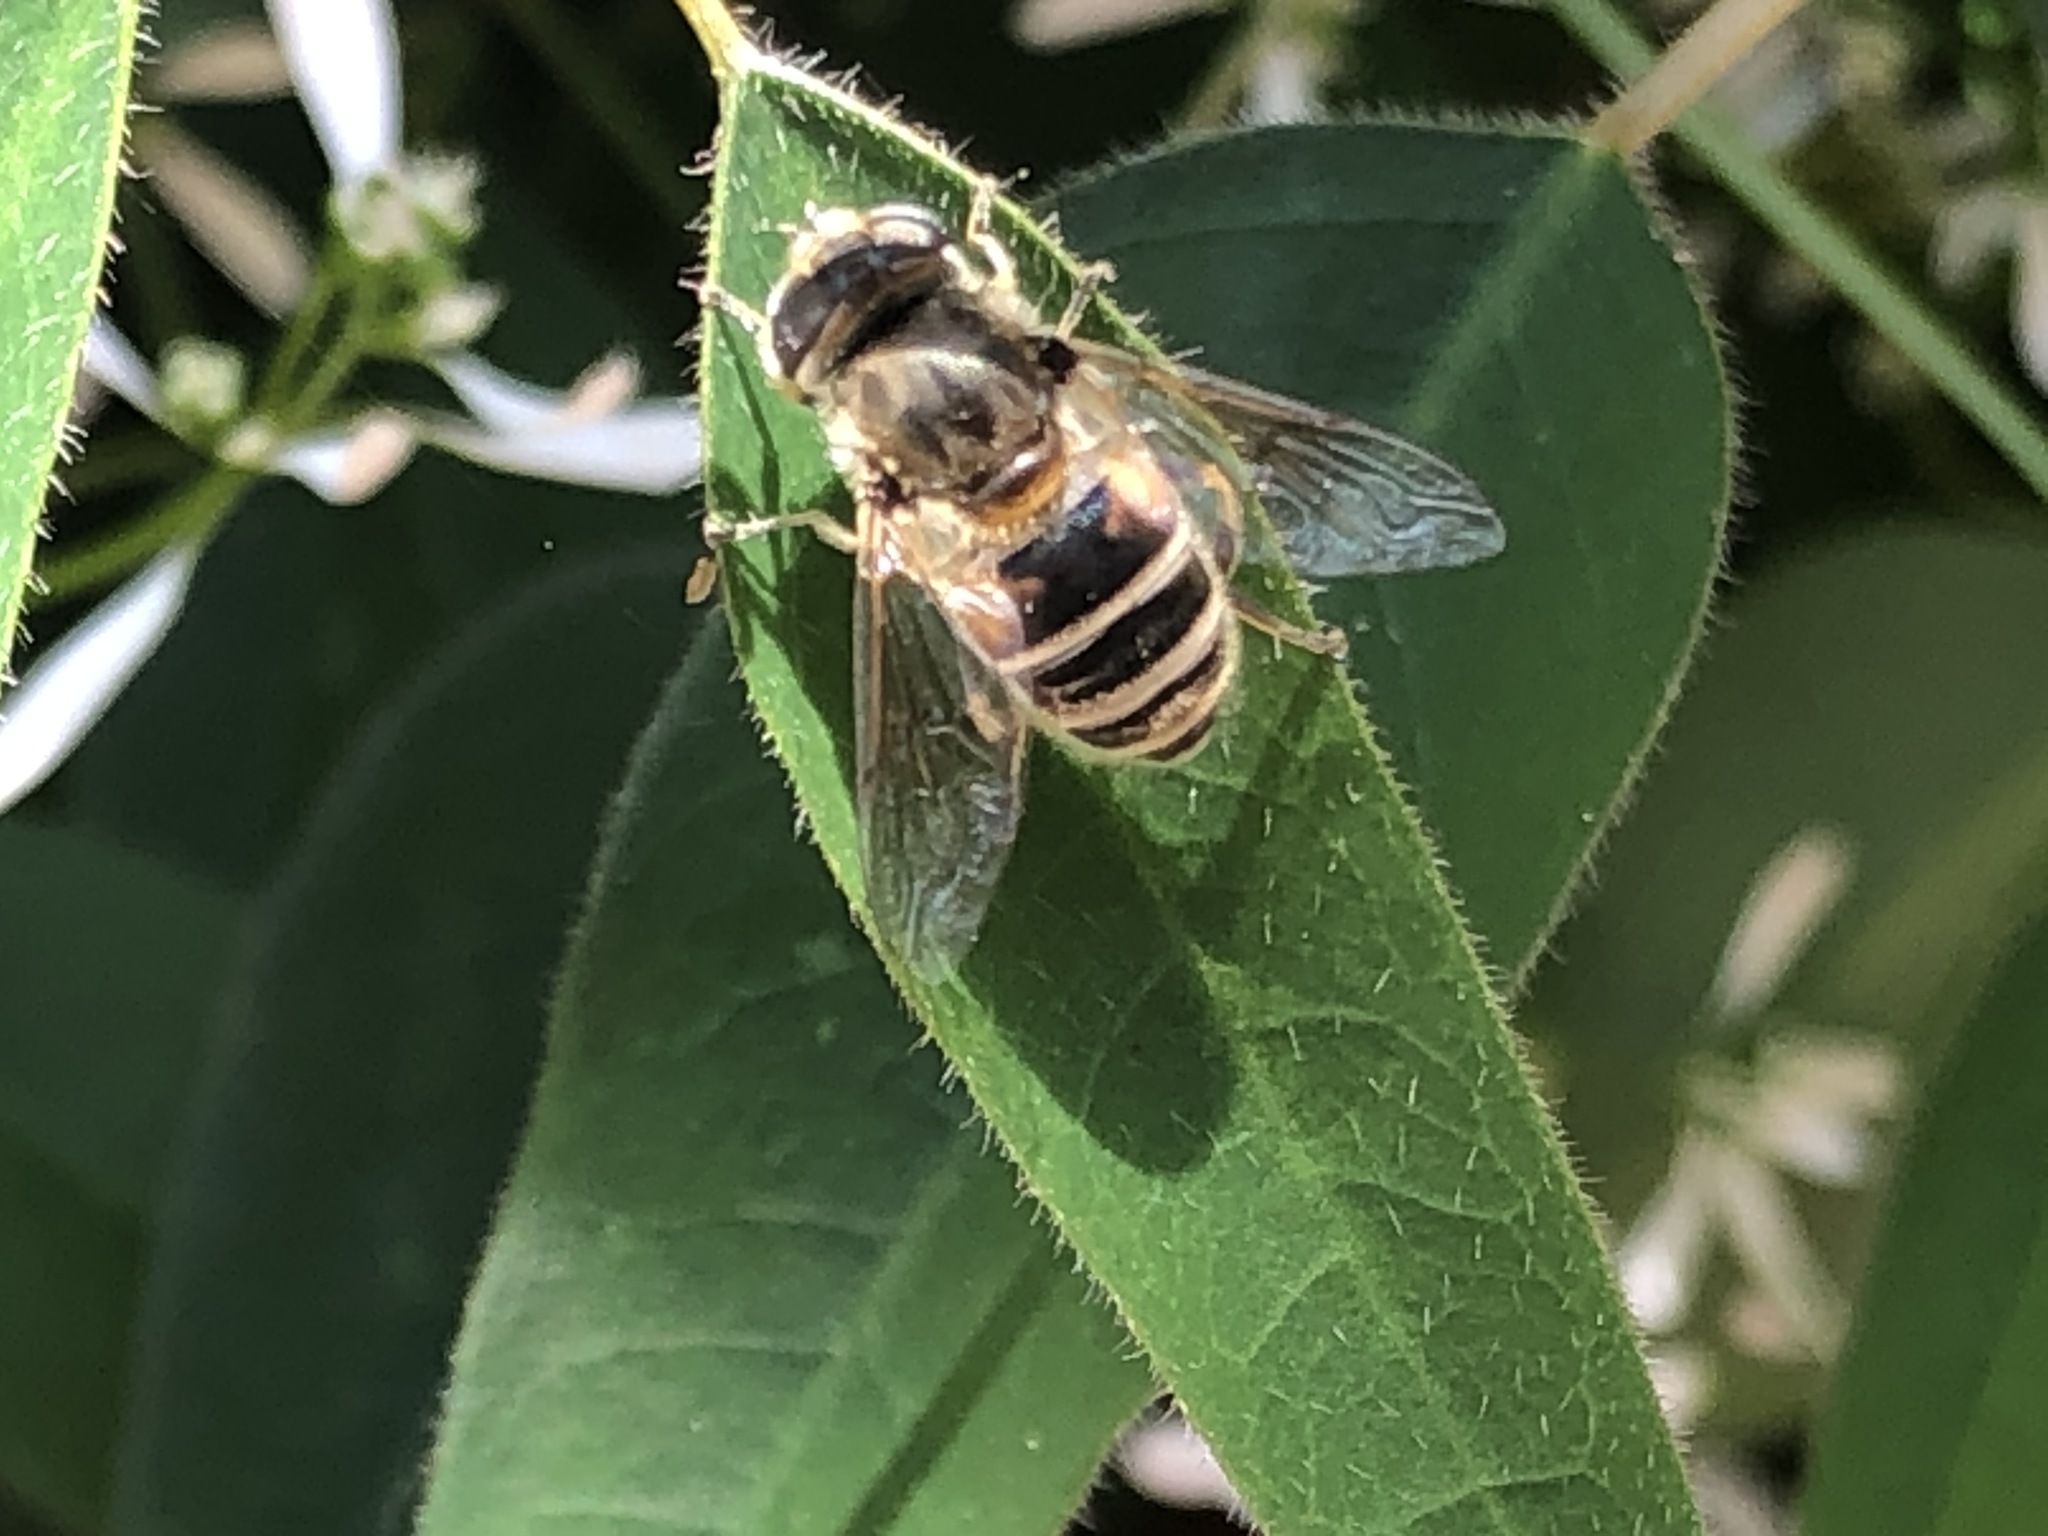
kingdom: Animalia
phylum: Arthropoda
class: Insecta
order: Diptera
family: Syrphidae
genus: Eristalis
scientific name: Eristalis arbustorum
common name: Hover fly
